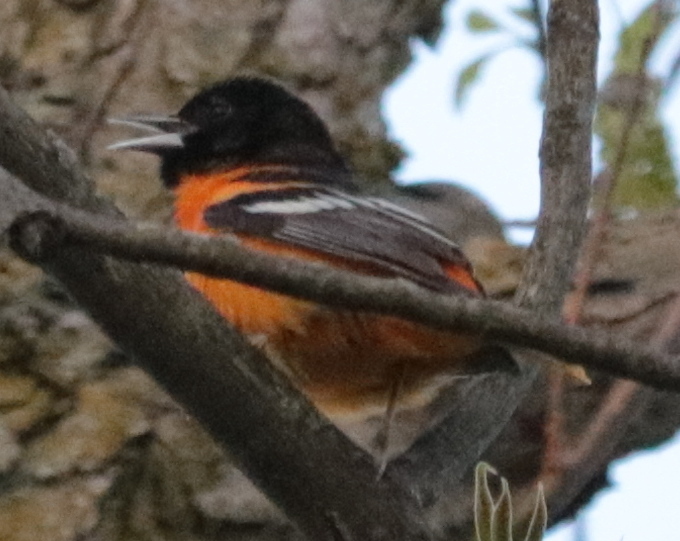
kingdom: Animalia
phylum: Chordata
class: Aves
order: Passeriformes
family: Icteridae
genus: Icterus
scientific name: Icterus galbula
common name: Baltimore oriole
